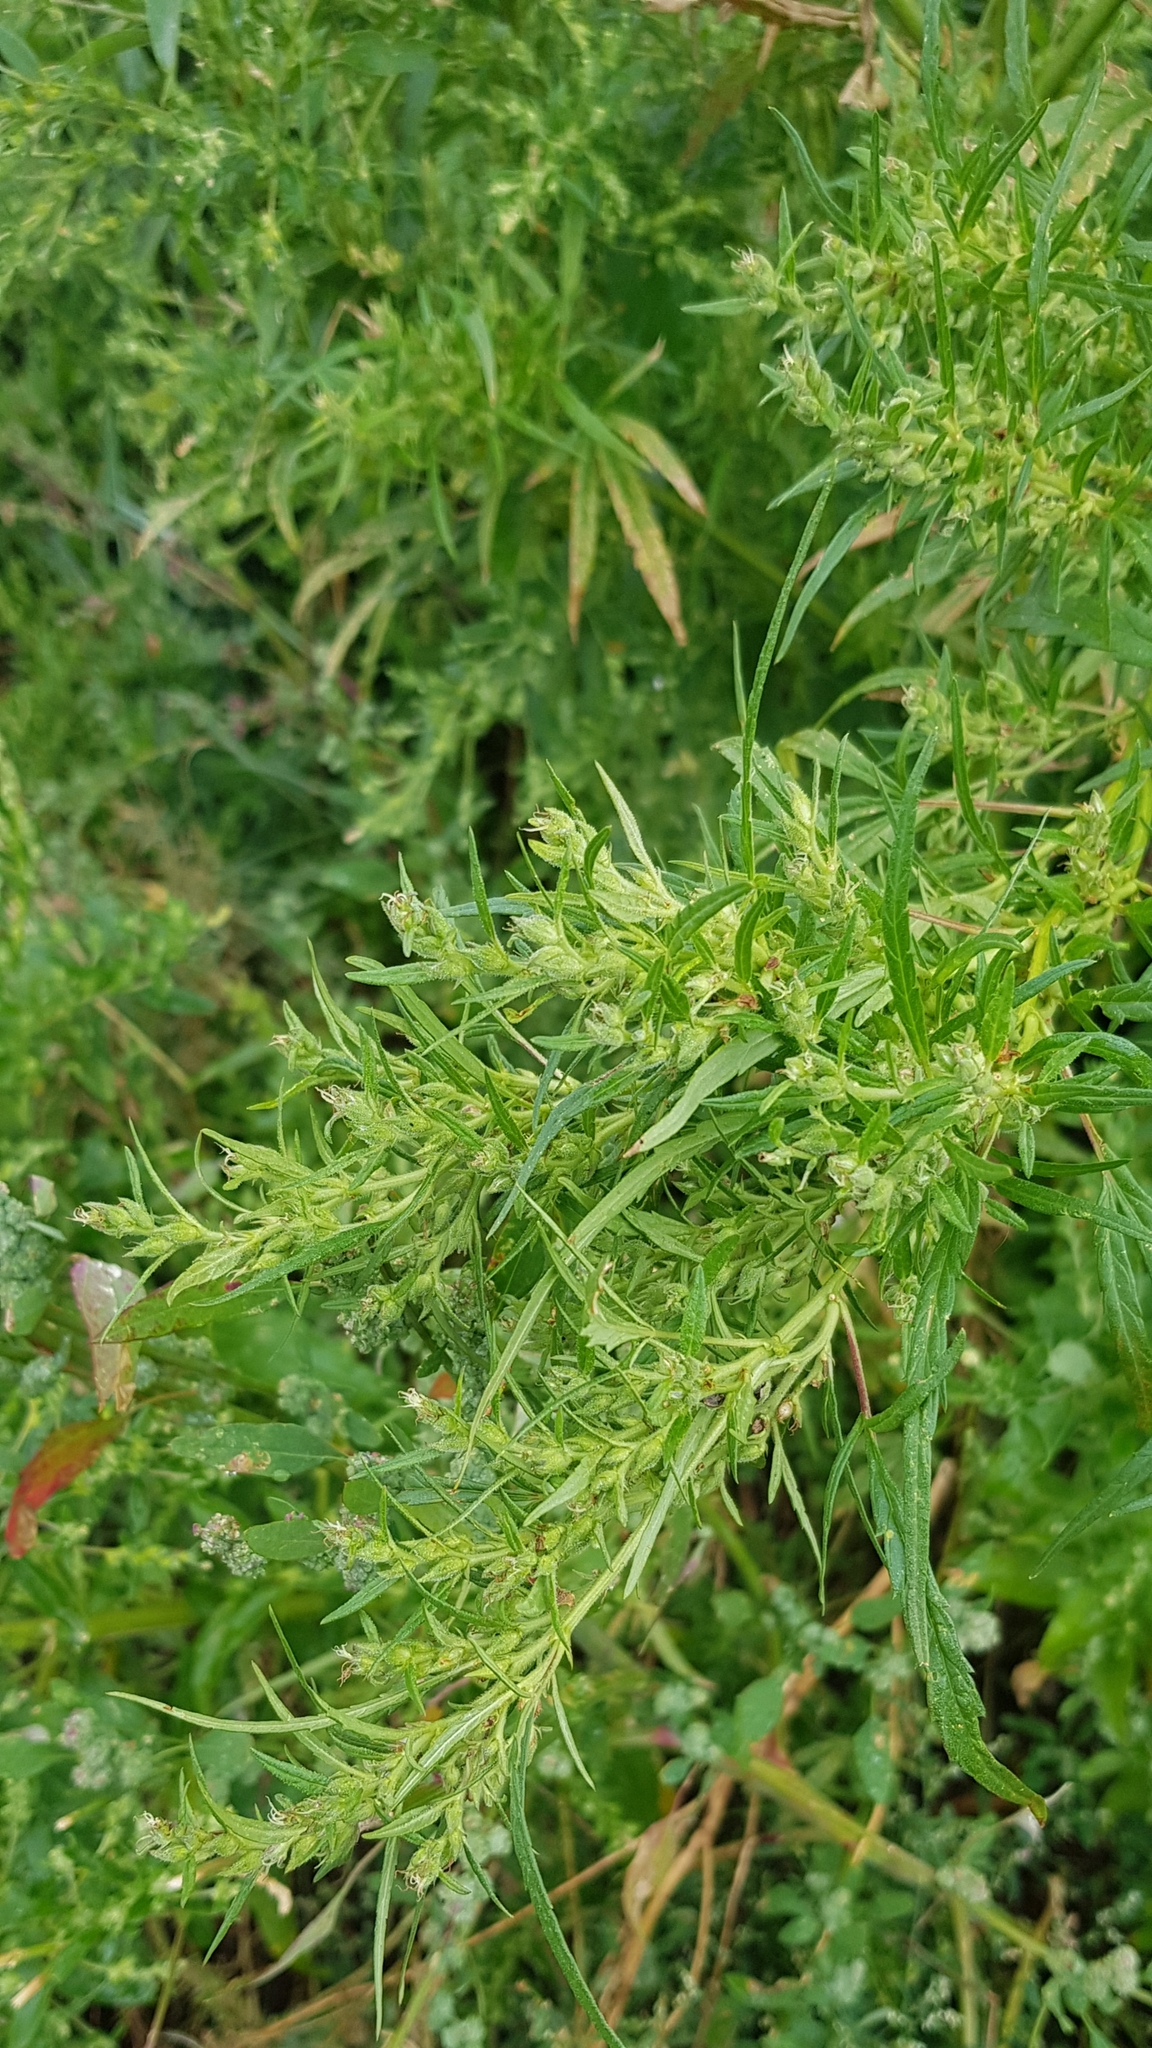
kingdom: Plantae
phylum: Tracheophyta
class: Magnoliopsida
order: Caryophyllales
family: Amaranthaceae
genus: Axyris
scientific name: Axyris amaranthoides
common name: Russian pigweed
